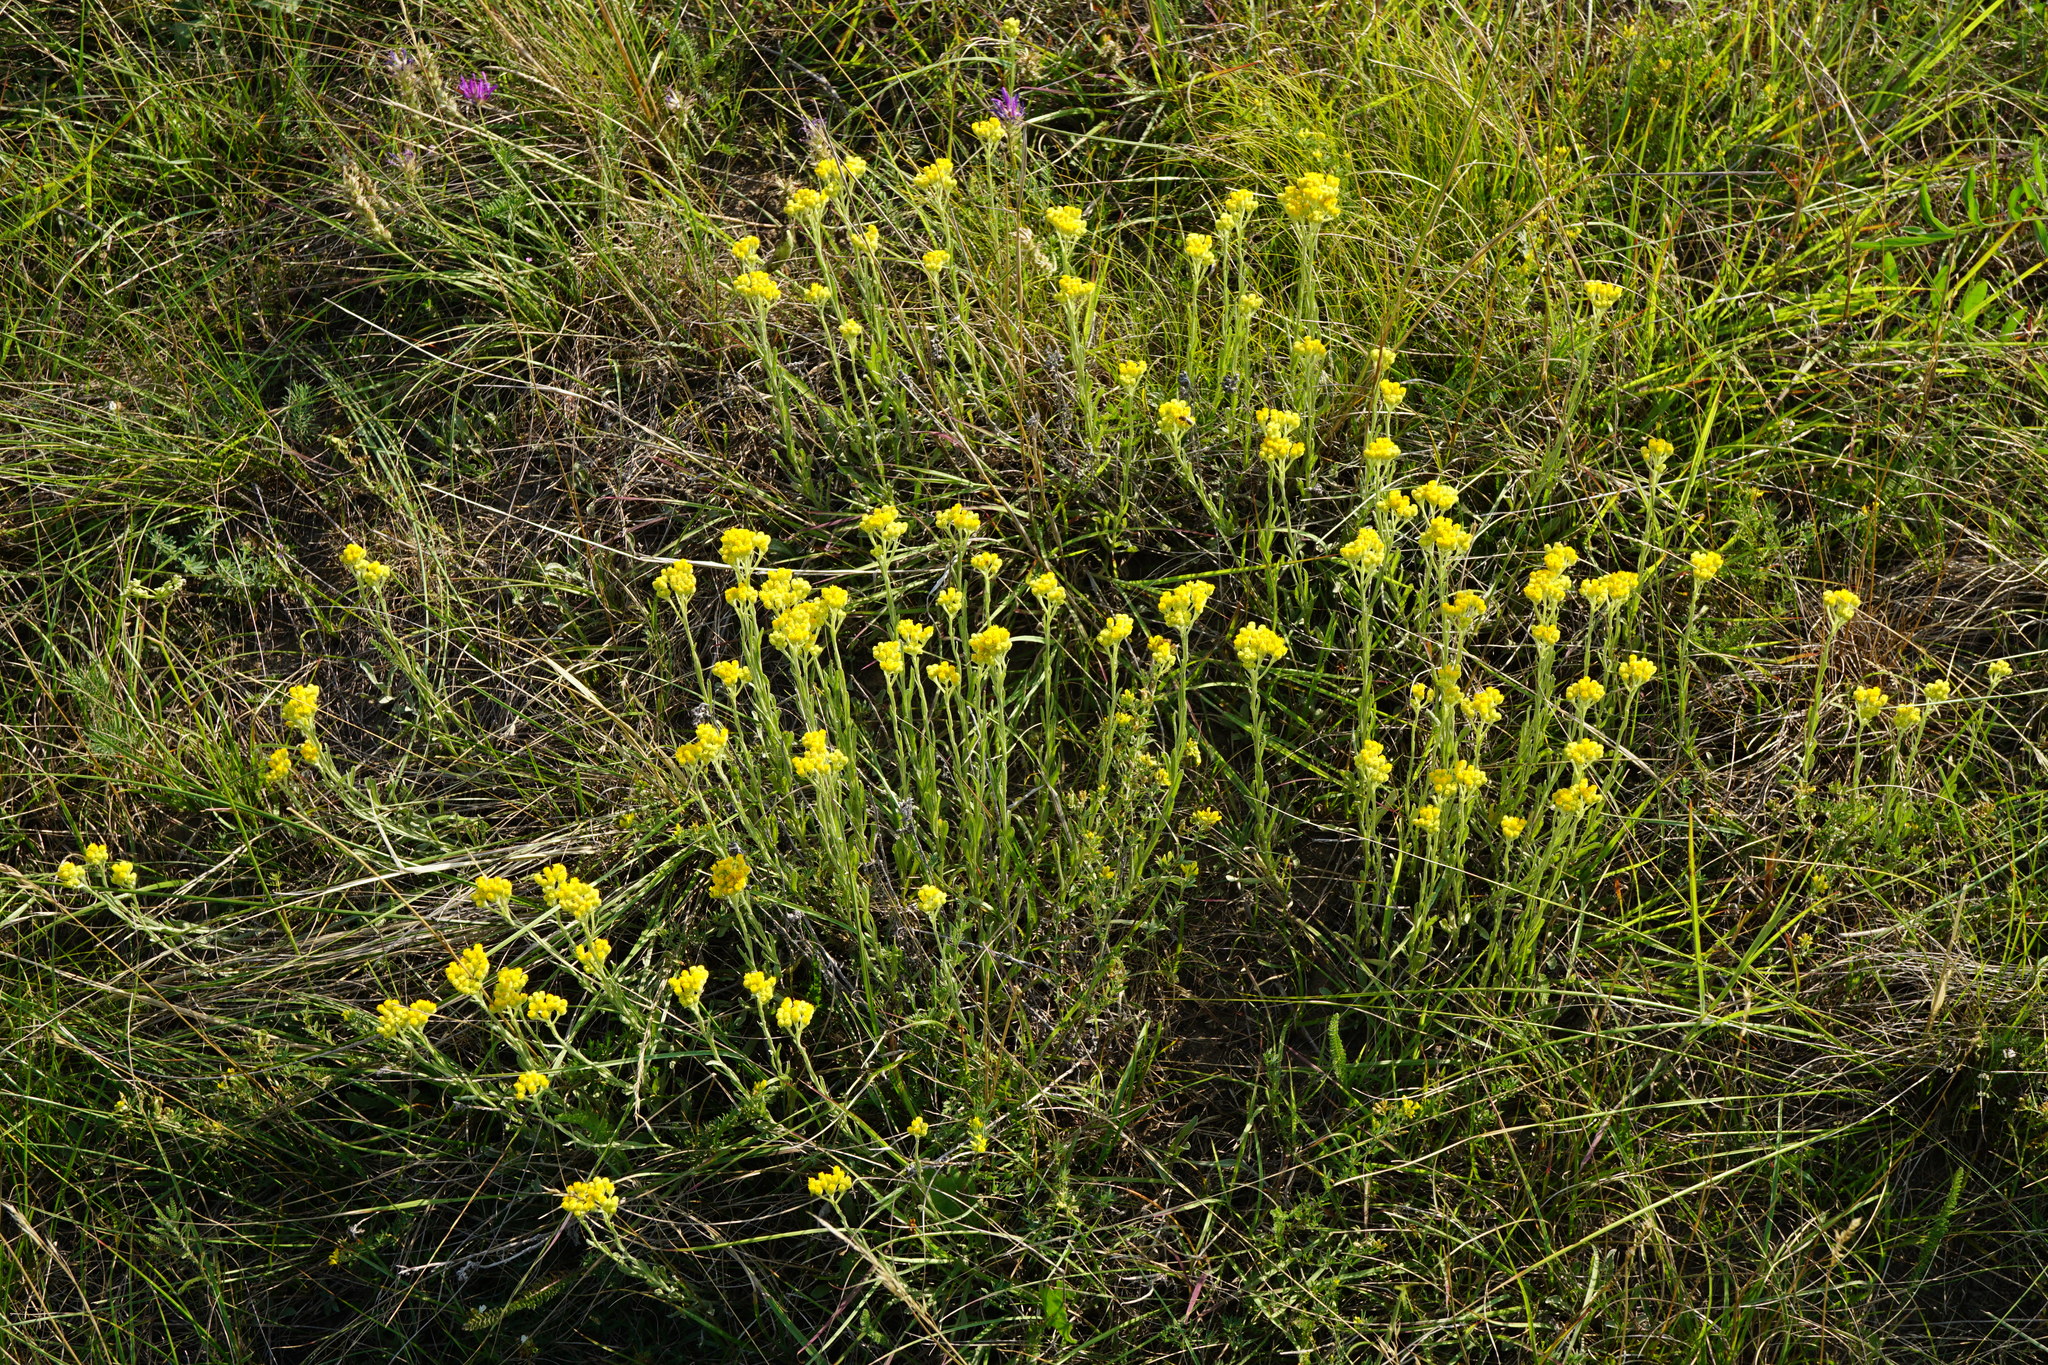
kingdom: Plantae
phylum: Tracheophyta
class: Magnoliopsida
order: Asterales
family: Asteraceae
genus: Helichrysum
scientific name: Helichrysum arenarium
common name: Strawflower
